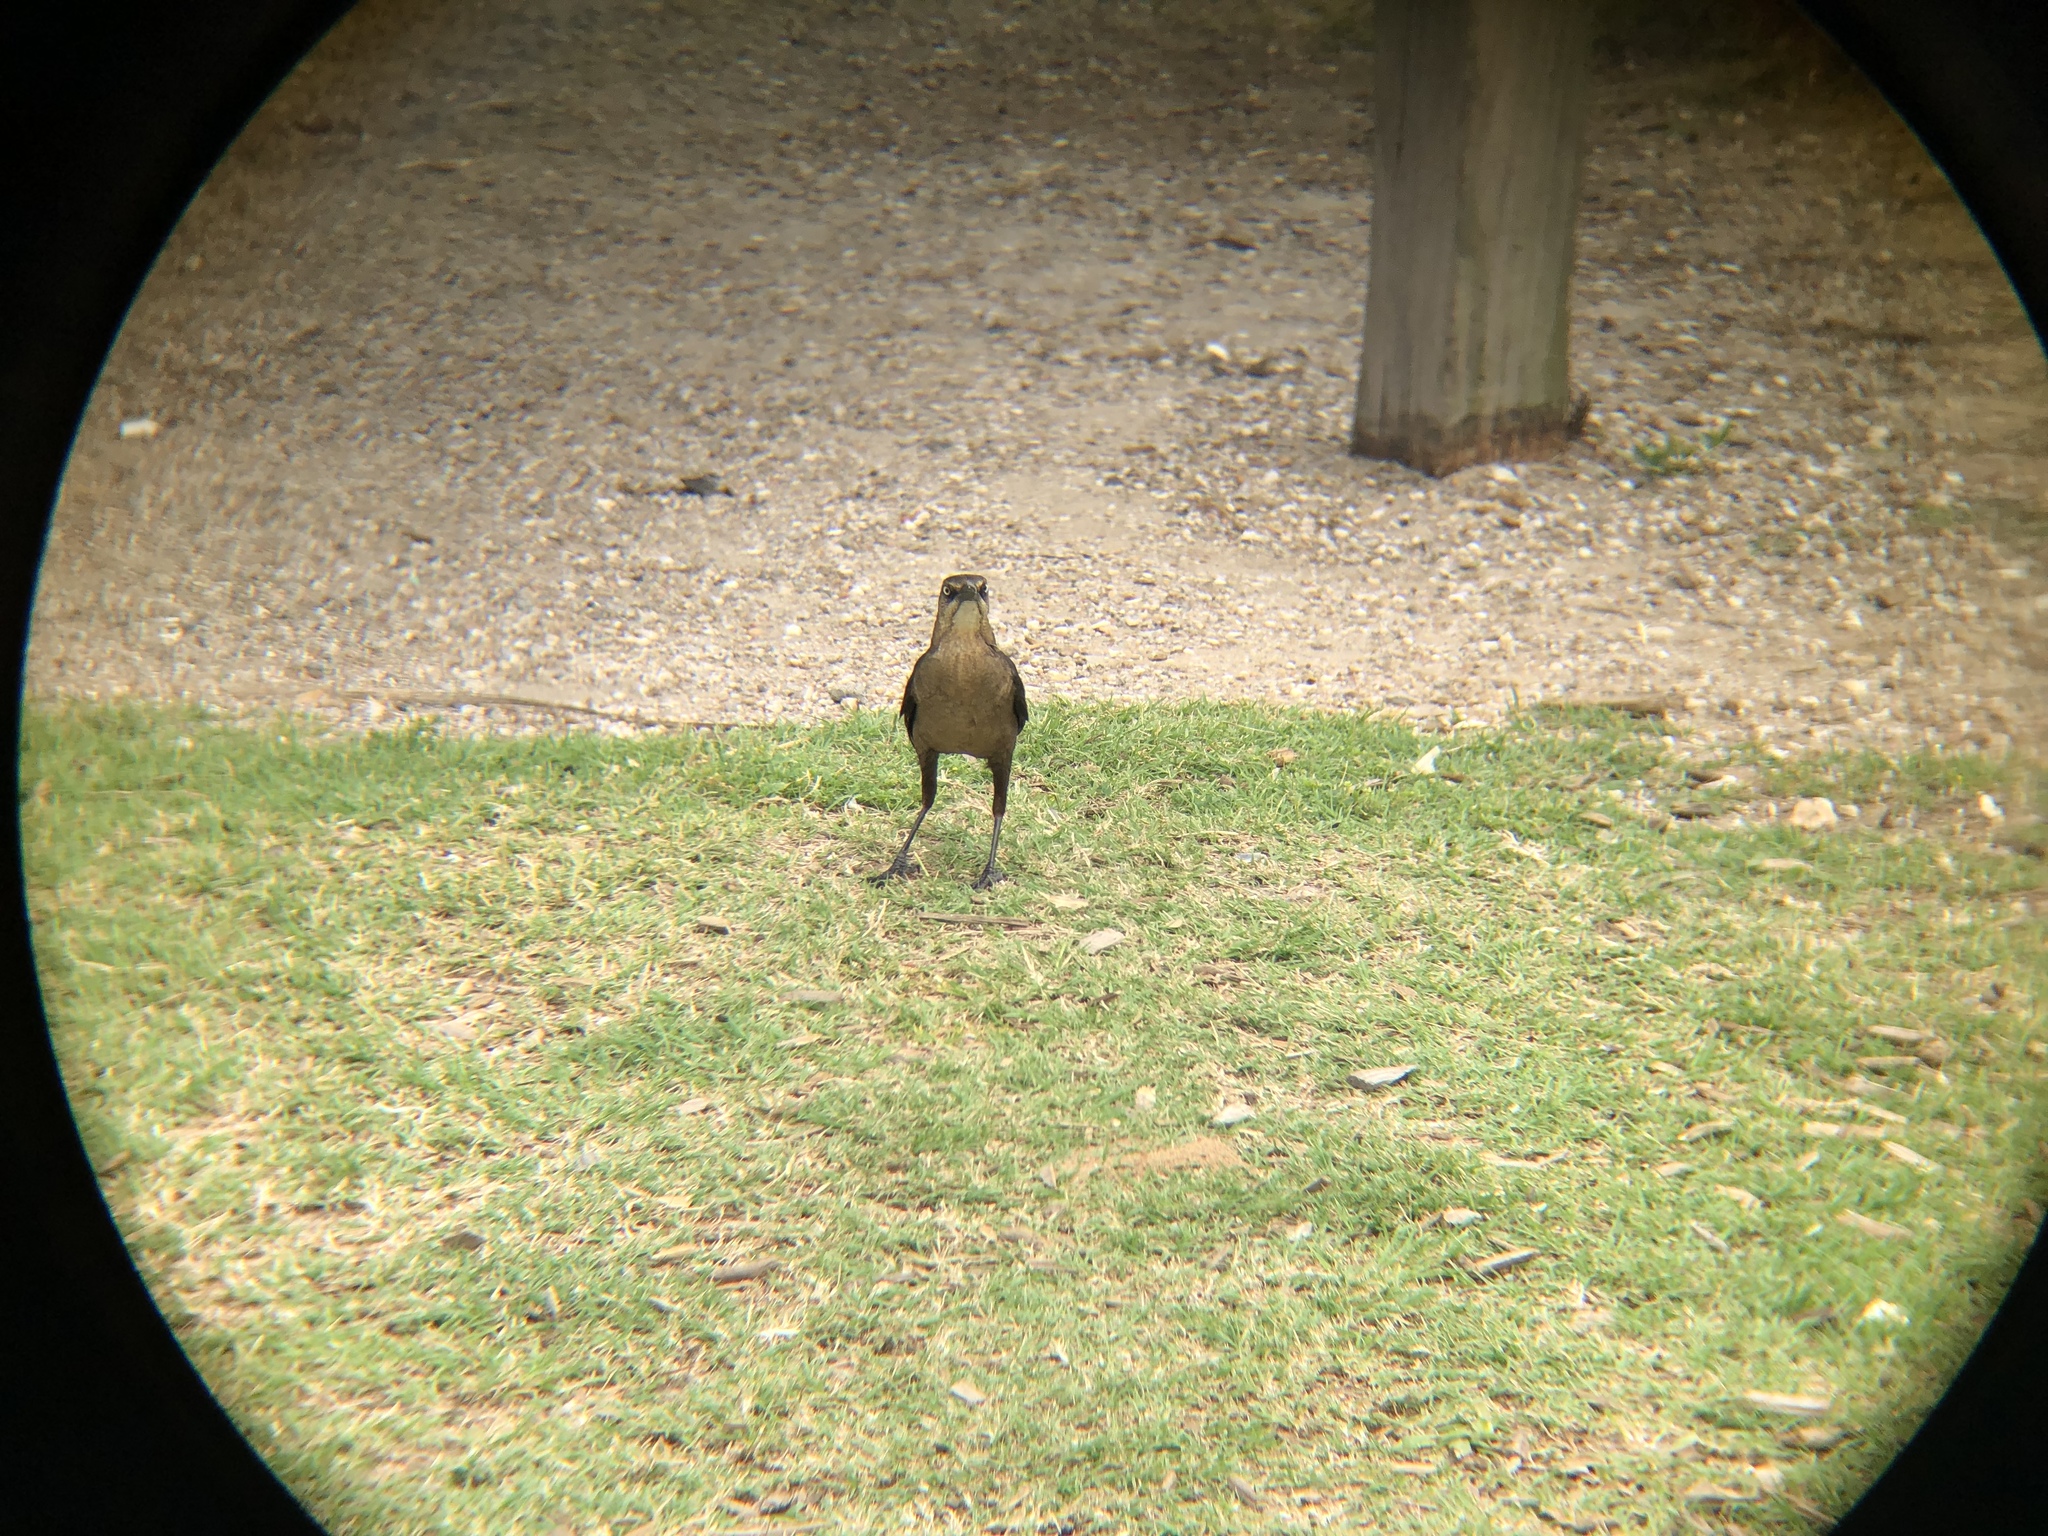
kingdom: Animalia
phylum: Chordata
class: Aves
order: Passeriformes
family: Icteridae
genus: Quiscalus
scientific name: Quiscalus mexicanus
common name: Great-tailed grackle
